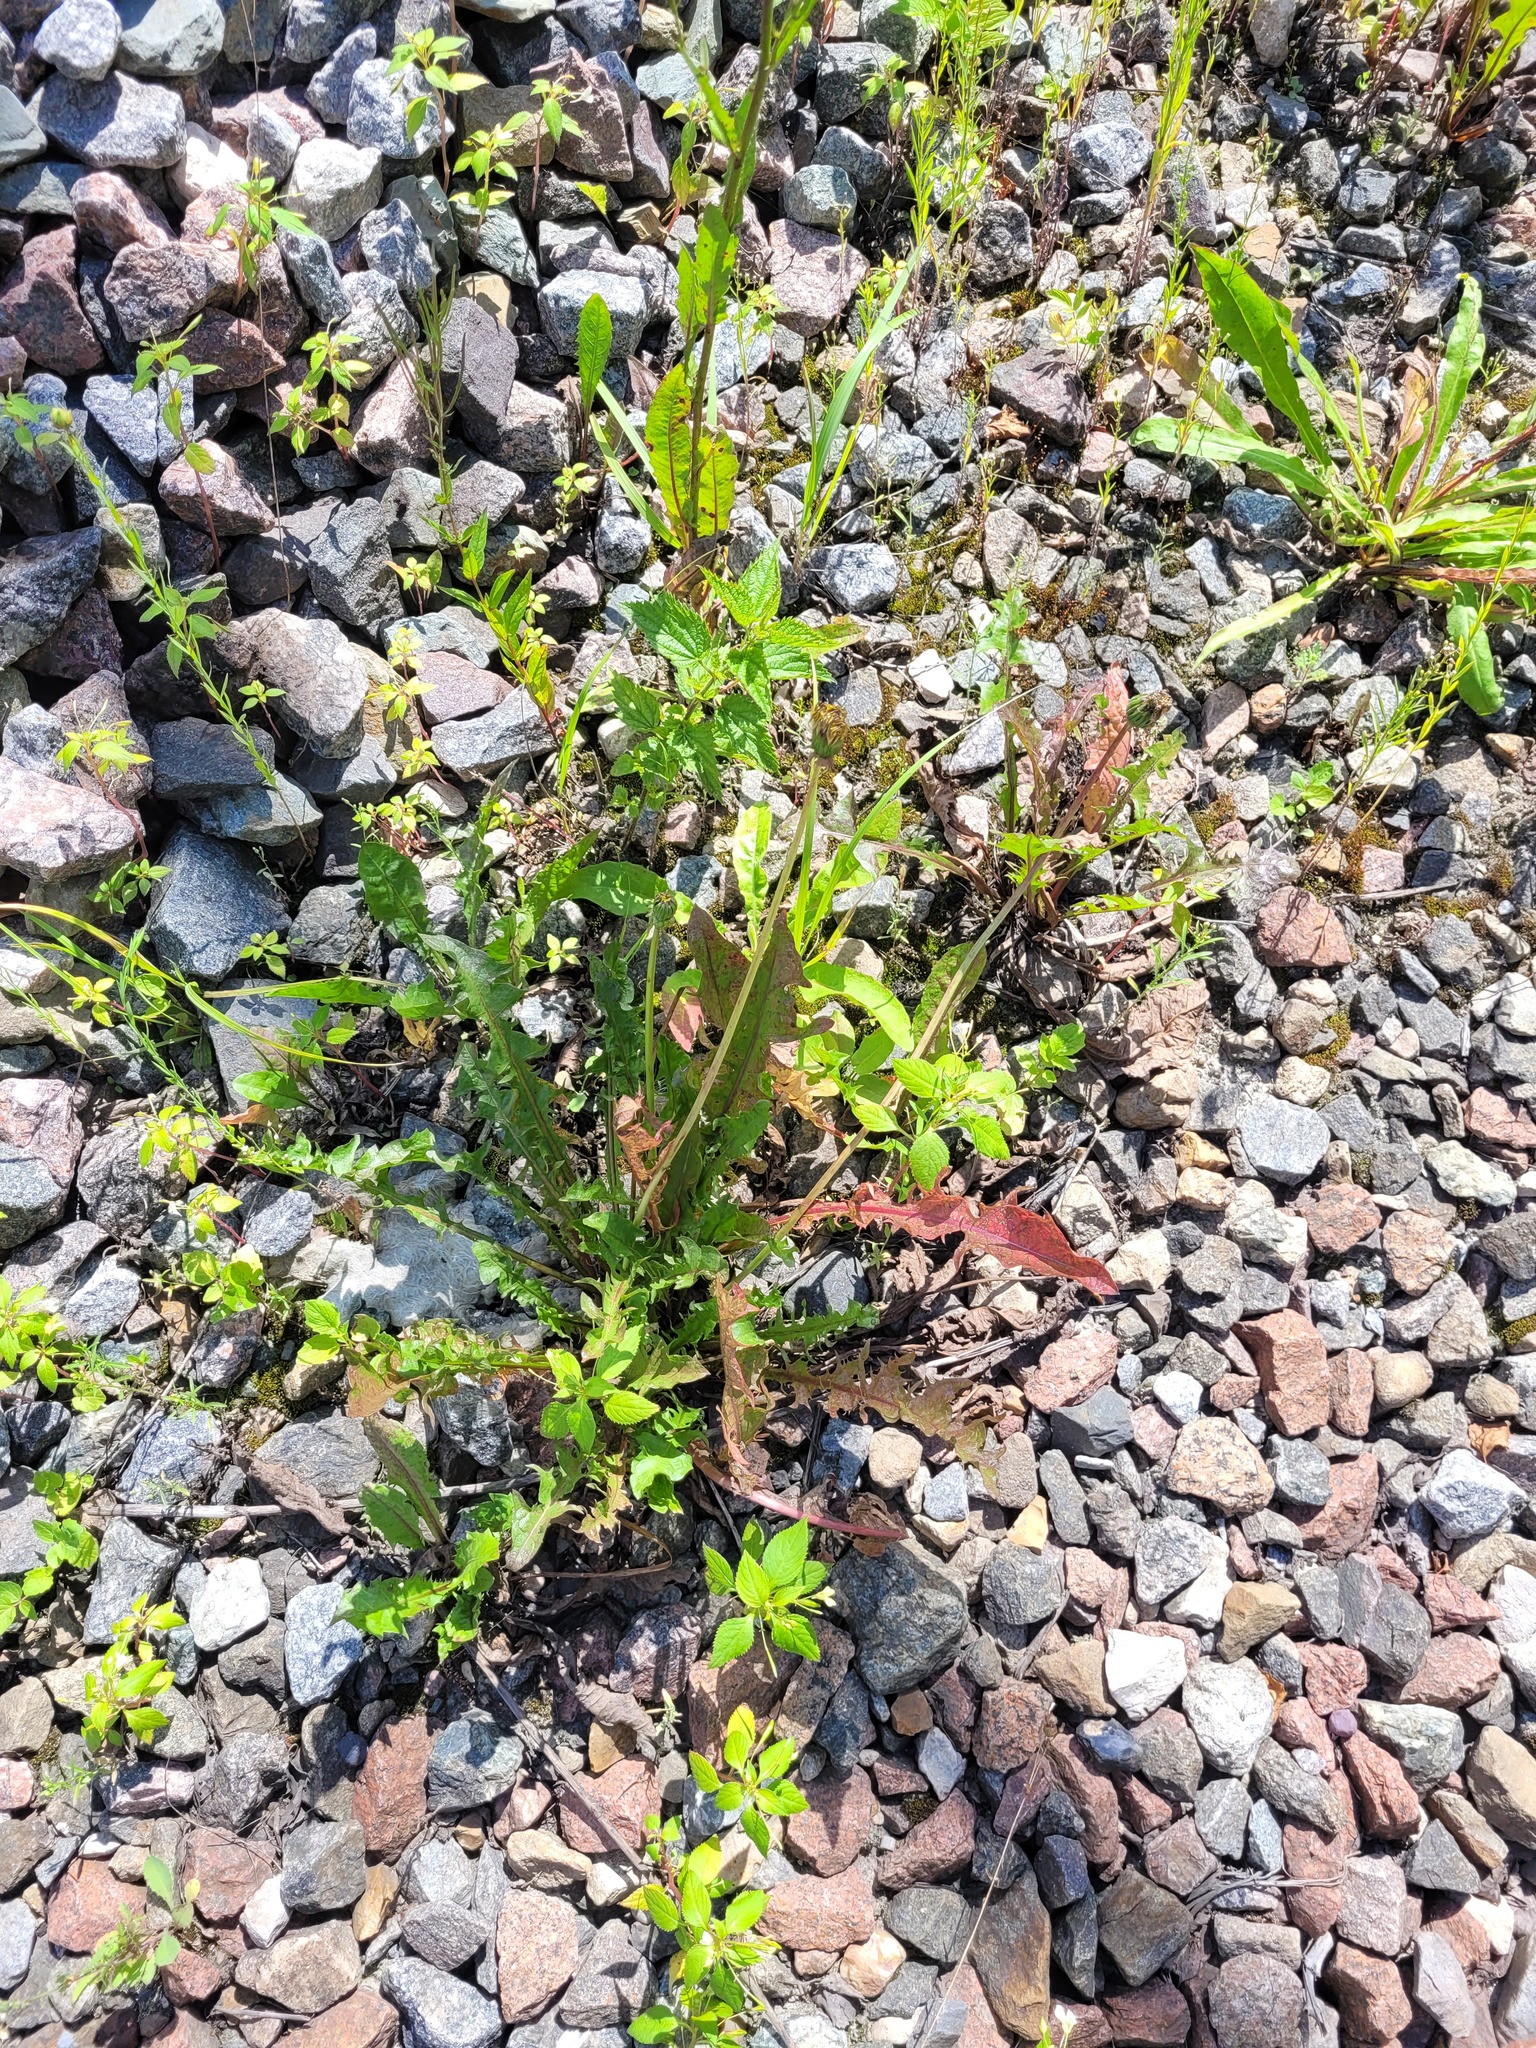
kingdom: Plantae
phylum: Tracheophyta
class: Magnoliopsida
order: Asterales
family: Asteraceae
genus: Taraxacum
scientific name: Taraxacum officinale
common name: Common dandelion
